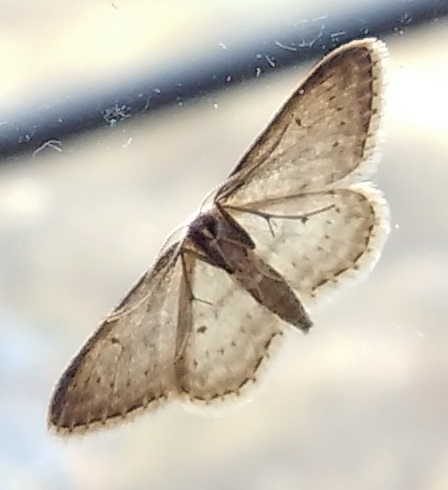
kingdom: Animalia
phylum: Arthropoda
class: Insecta
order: Lepidoptera
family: Geometridae
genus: Idaea
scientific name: Idaea seriata
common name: Small dusty wave
